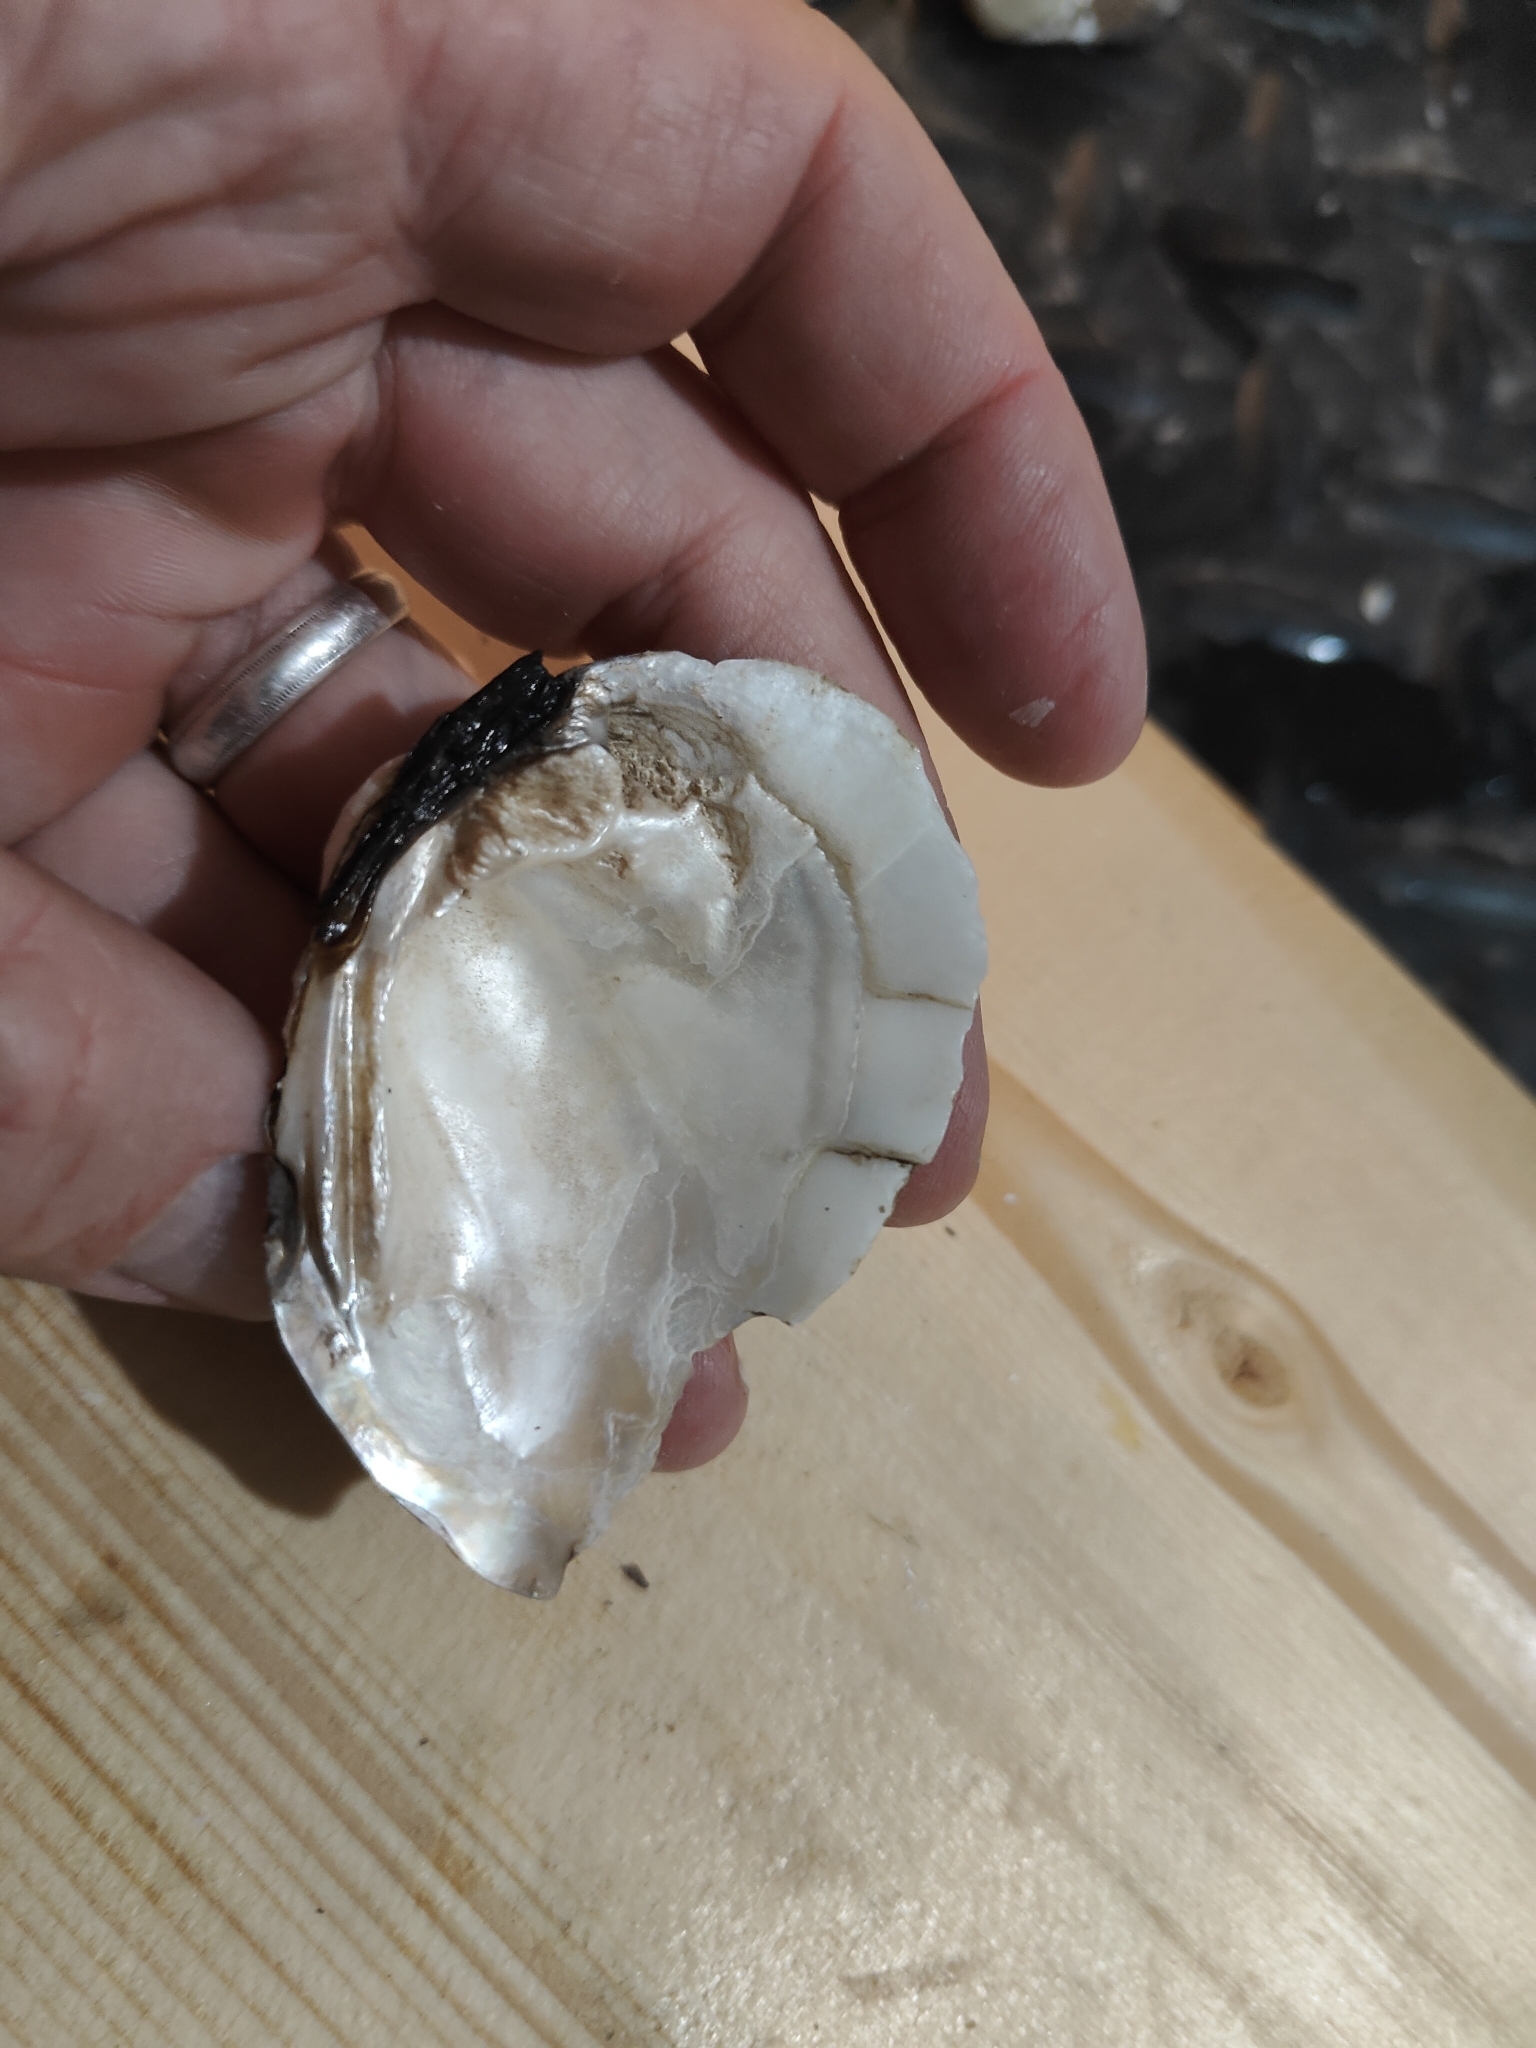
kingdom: Animalia
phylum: Mollusca
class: Bivalvia
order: Unionida
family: Unionidae
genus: Fusconaia
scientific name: Fusconaia flava
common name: Wabash pigtoe
